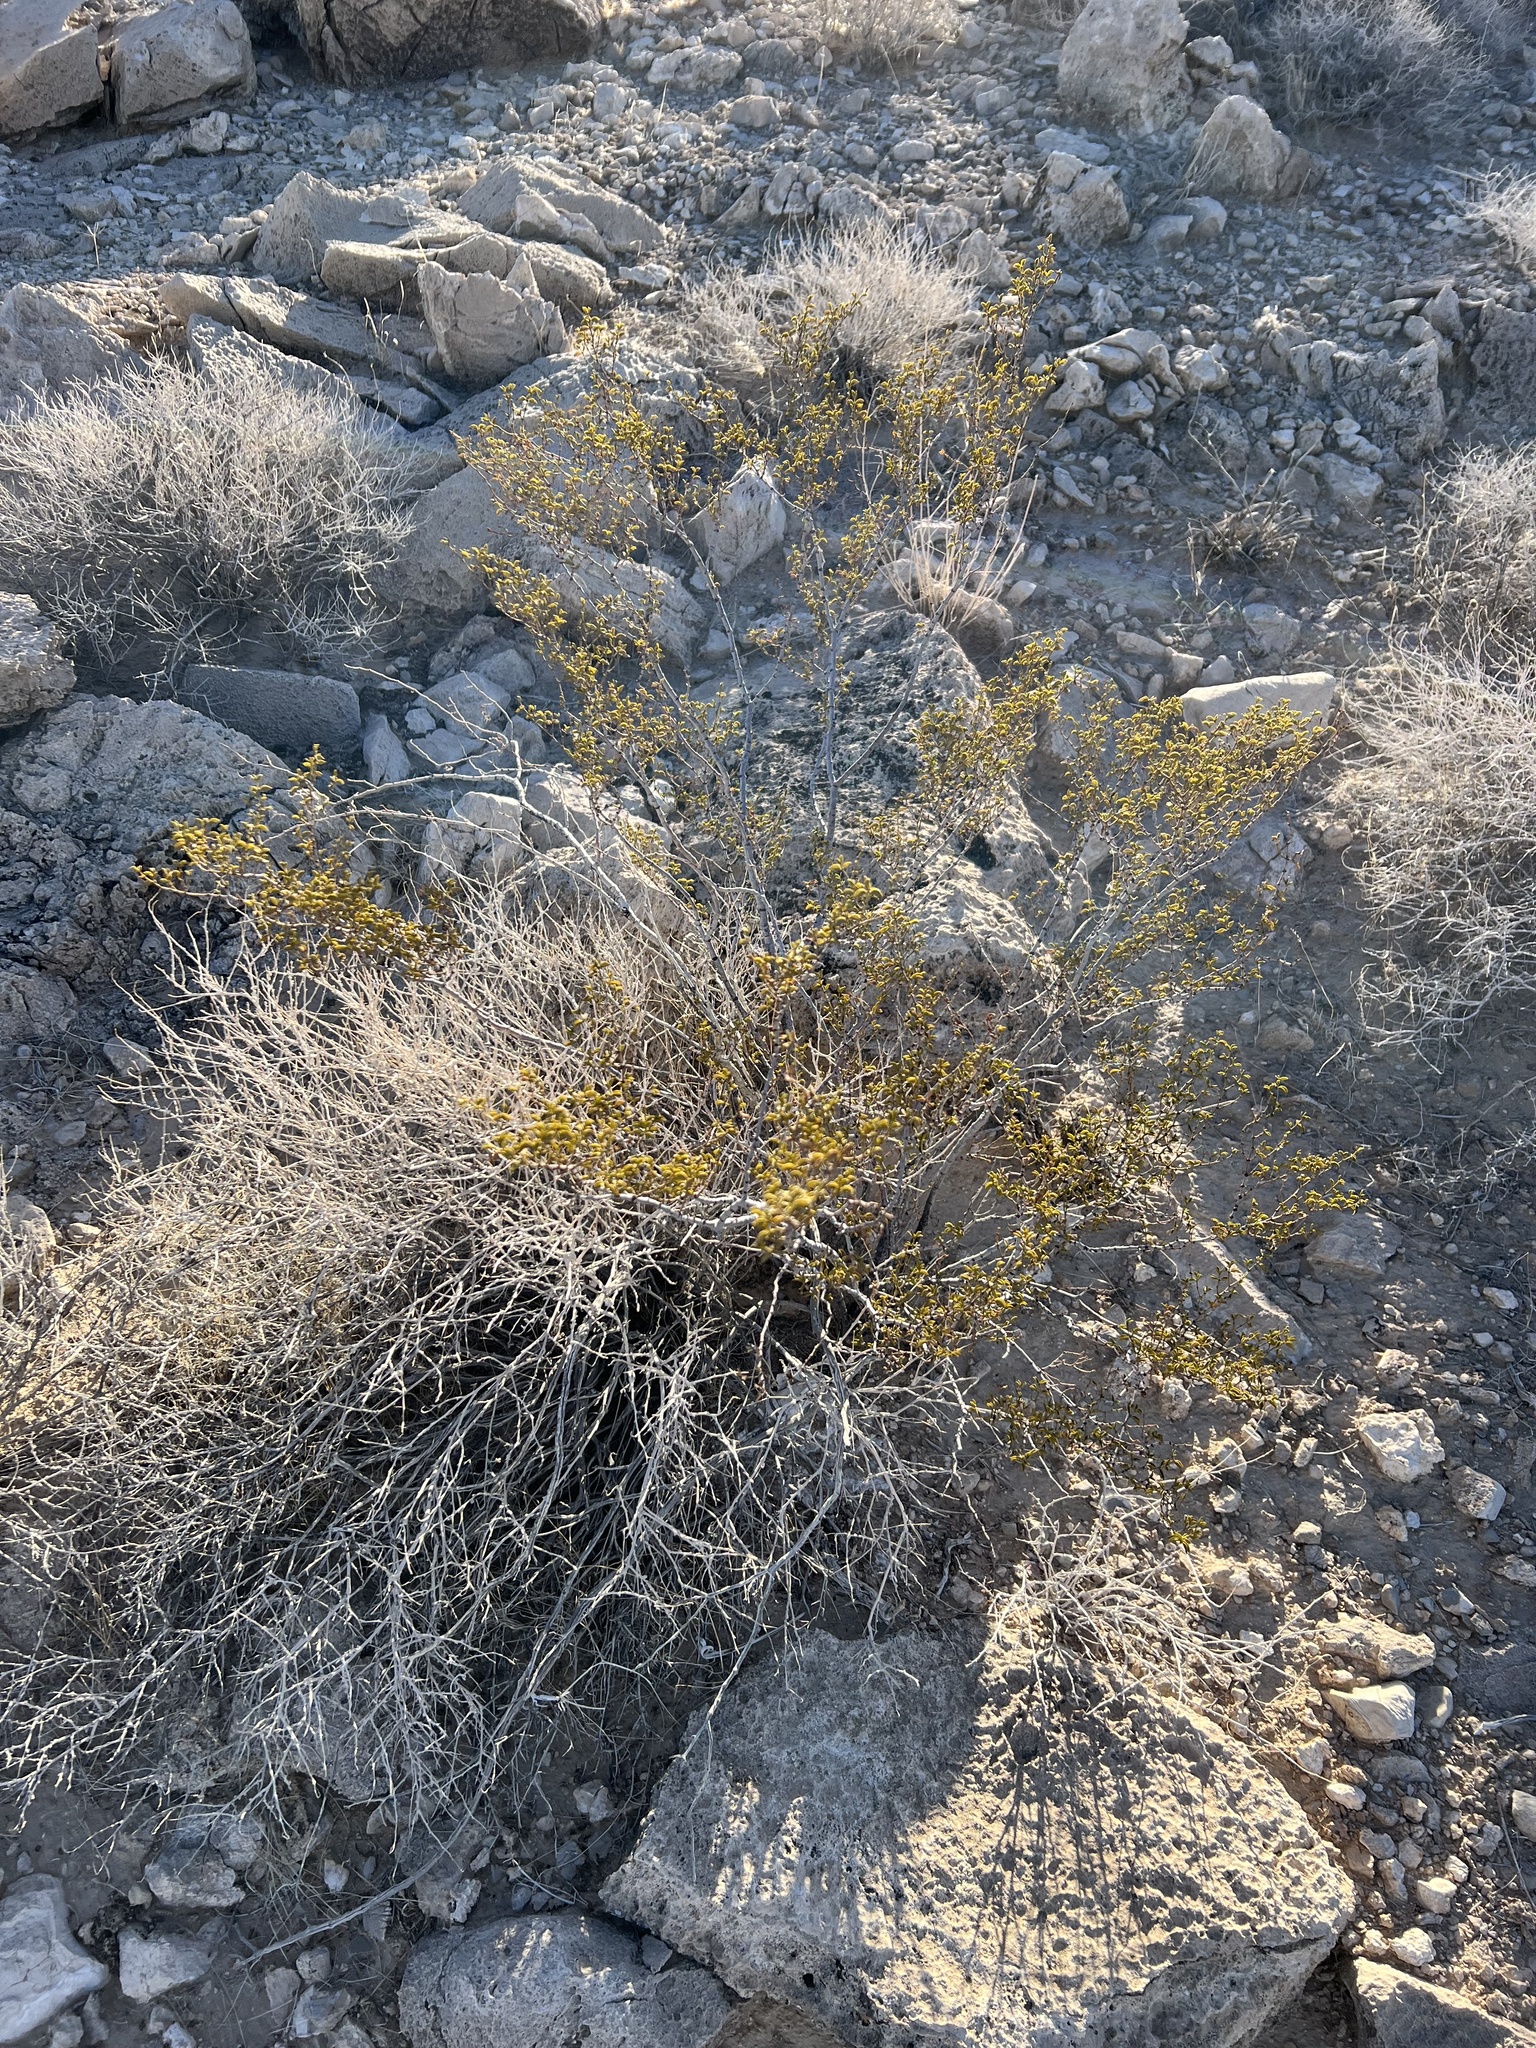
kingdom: Plantae
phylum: Tracheophyta
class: Magnoliopsida
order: Zygophyllales
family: Zygophyllaceae
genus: Larrea
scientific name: Larrea tridentata
